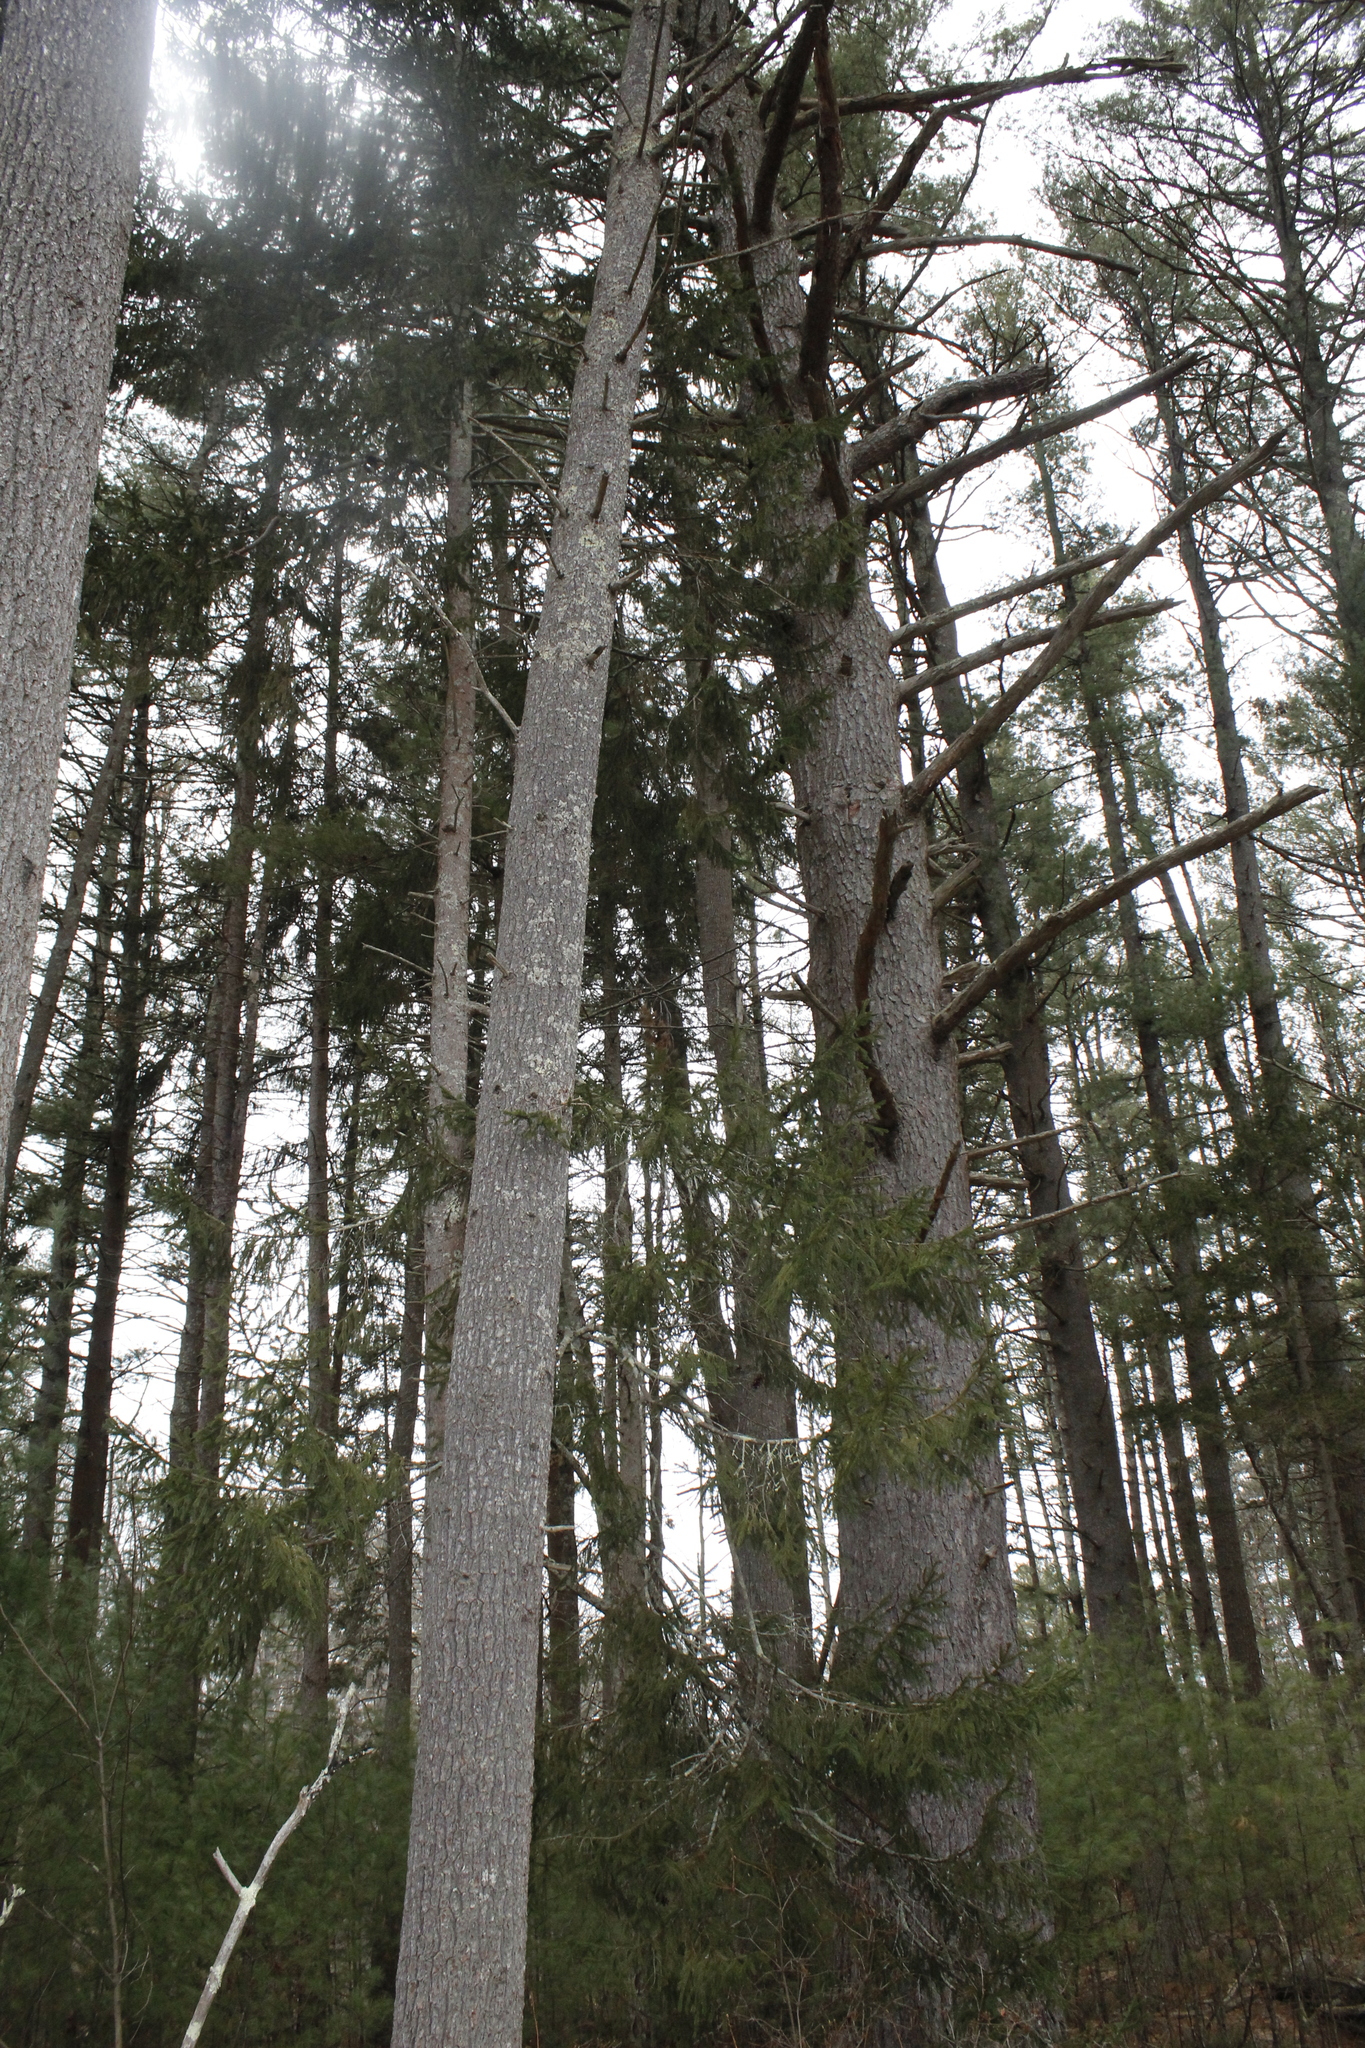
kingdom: Plantae
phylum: Tracheophyta
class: Pinopsida
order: Pinales
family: Pinaceae
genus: Picea
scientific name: Picea abies
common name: Norway spruce
